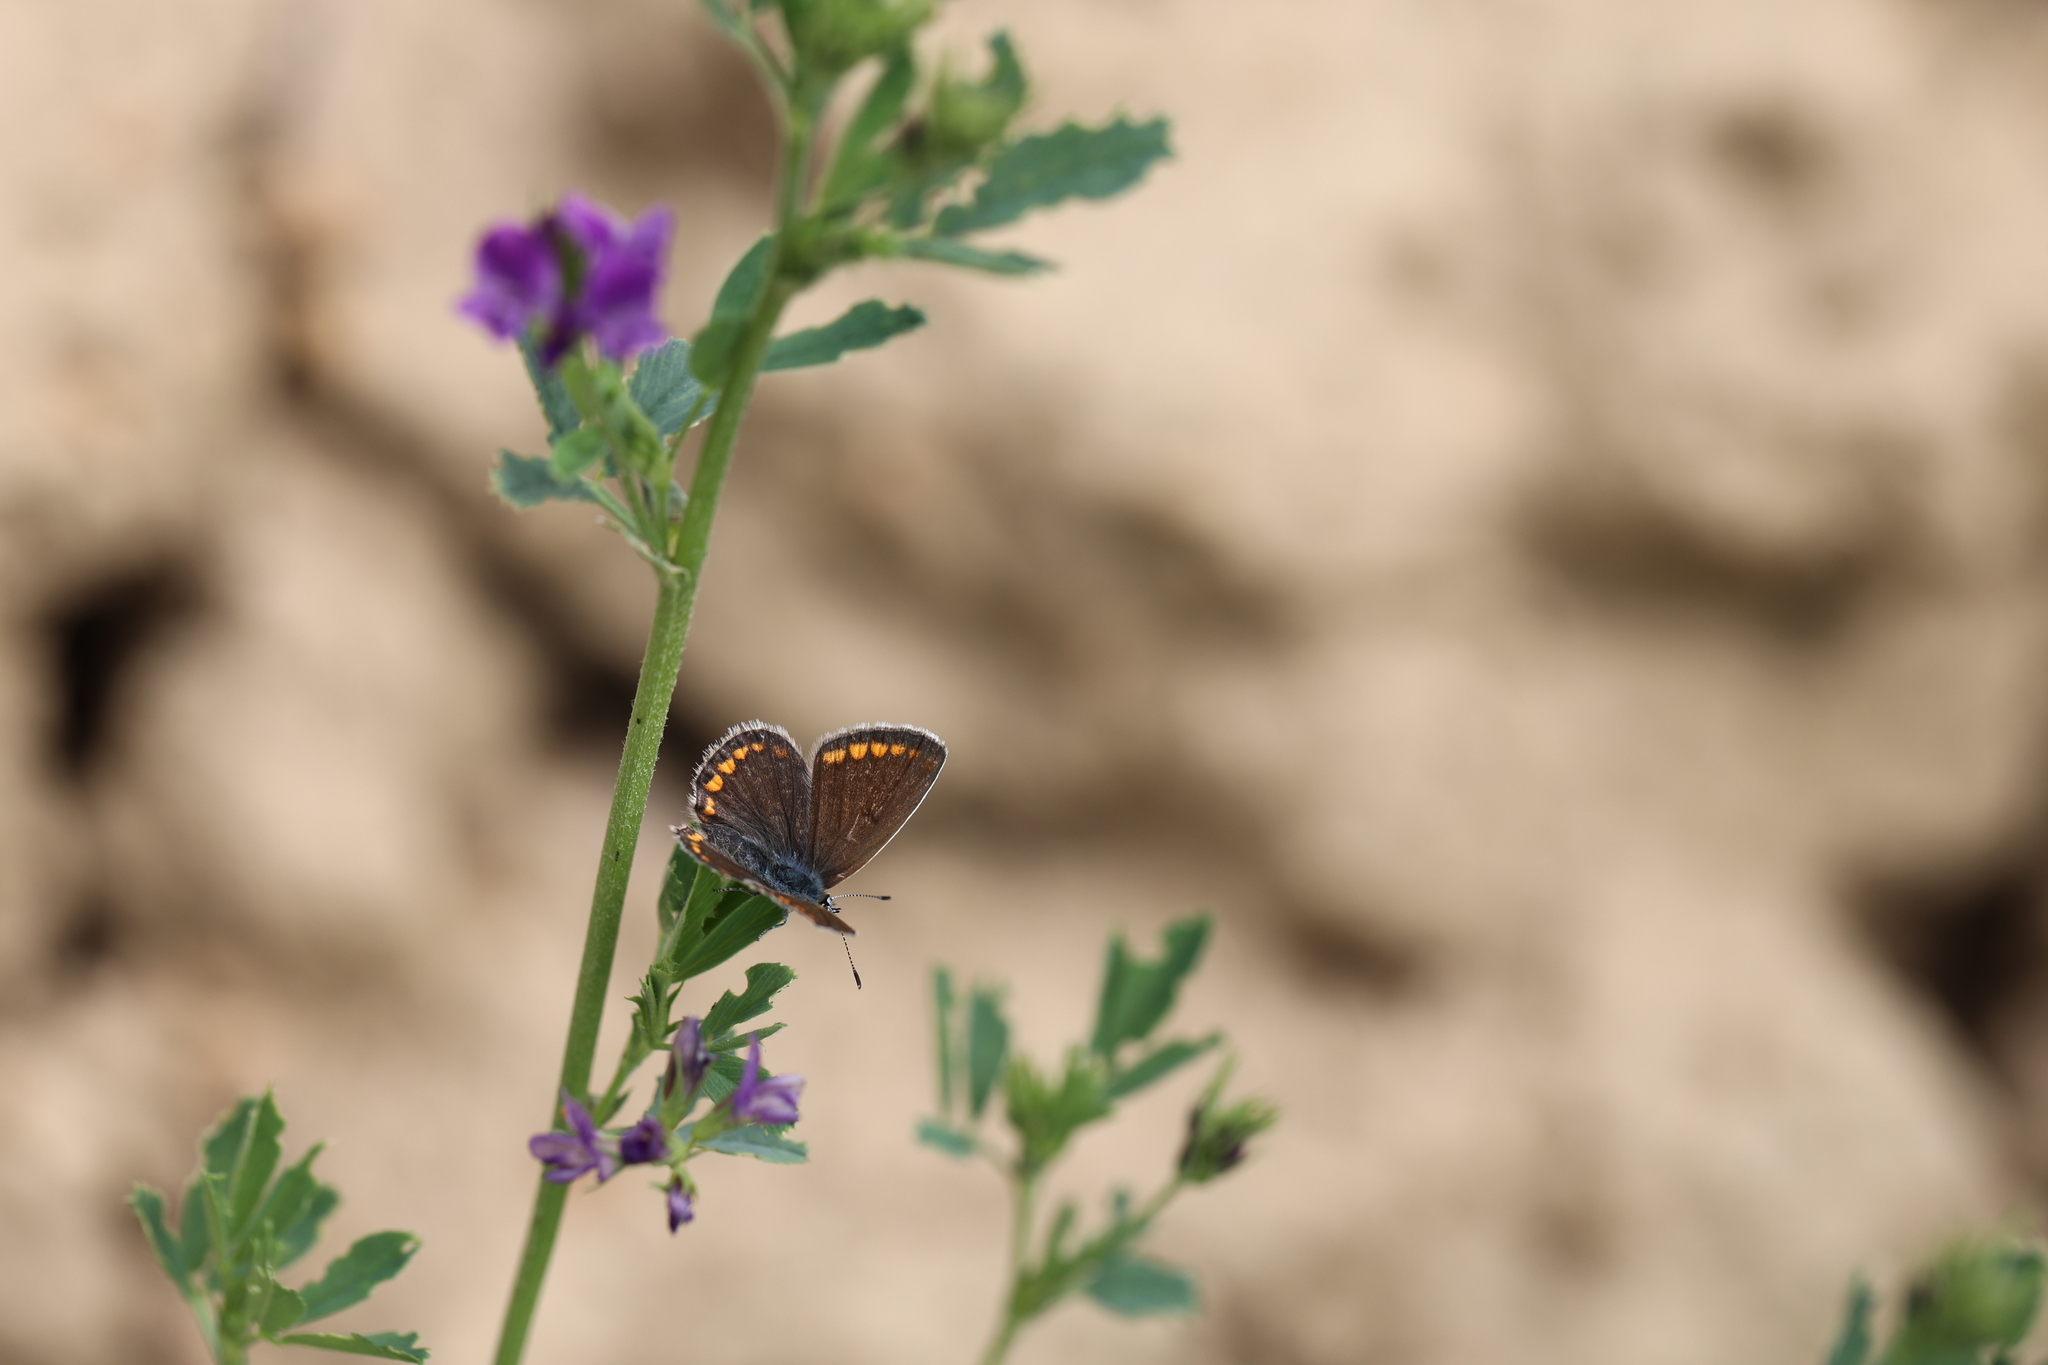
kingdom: Animalia
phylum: Arthropoda
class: Insecta
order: Lepidoptera
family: Lycaenidae
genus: Polyommatus
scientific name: Polyommatus icarus
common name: Common blue
